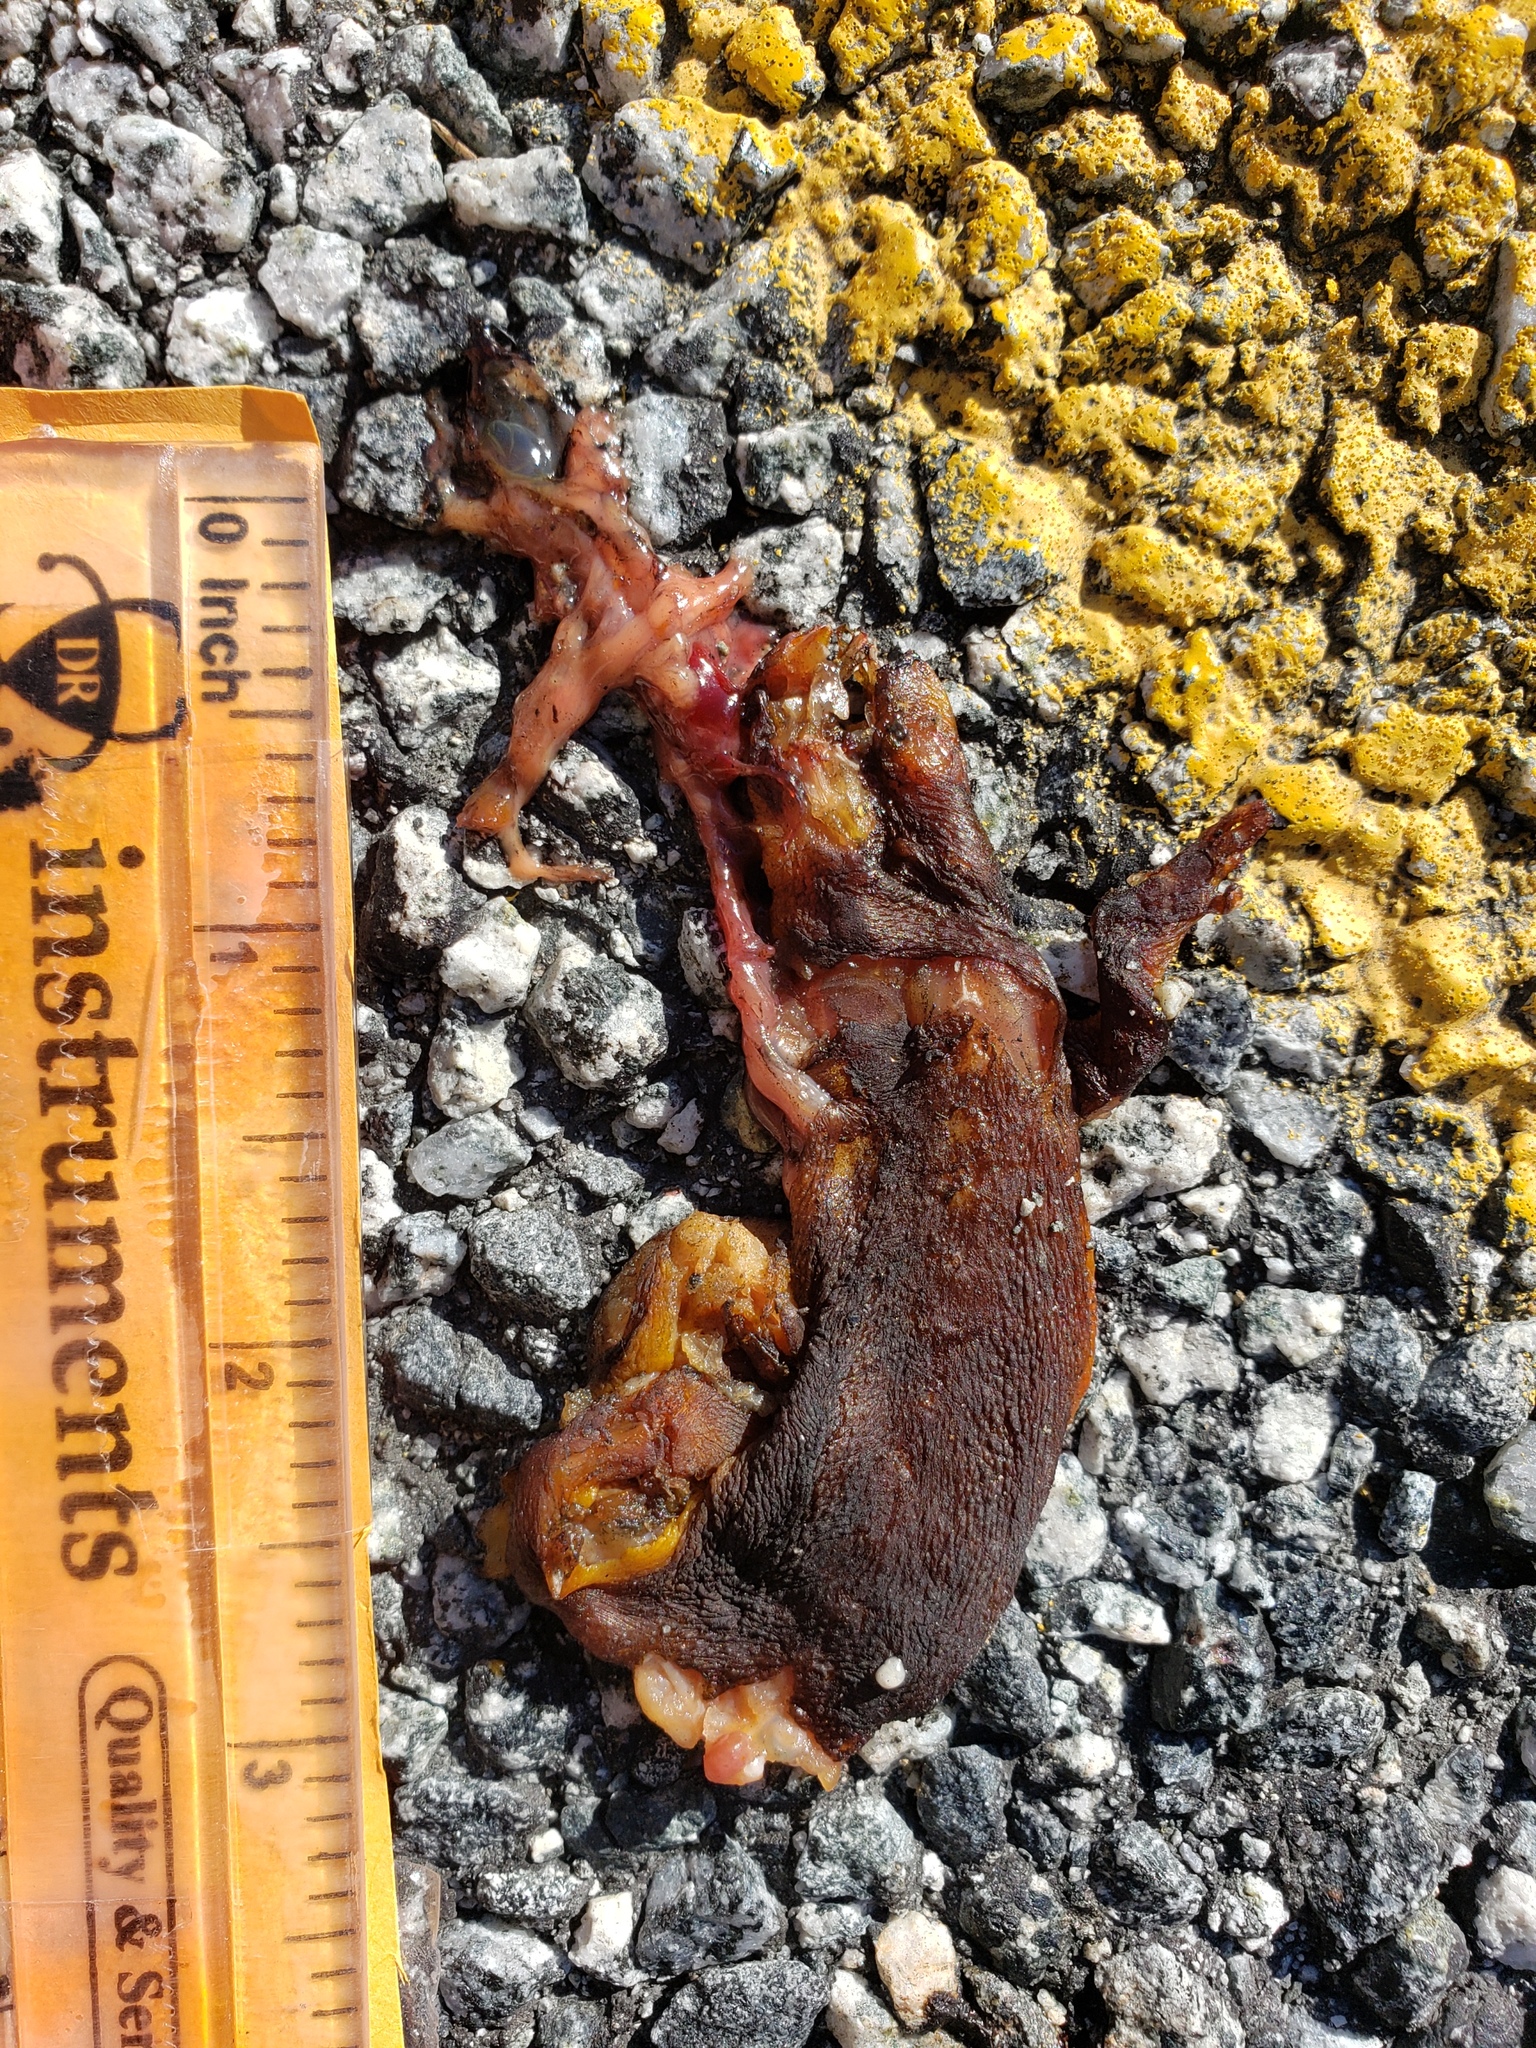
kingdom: Animalia
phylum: Chordata
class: Amphibia
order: Caudata
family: Salamandridae
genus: Taricha
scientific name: Taricha
